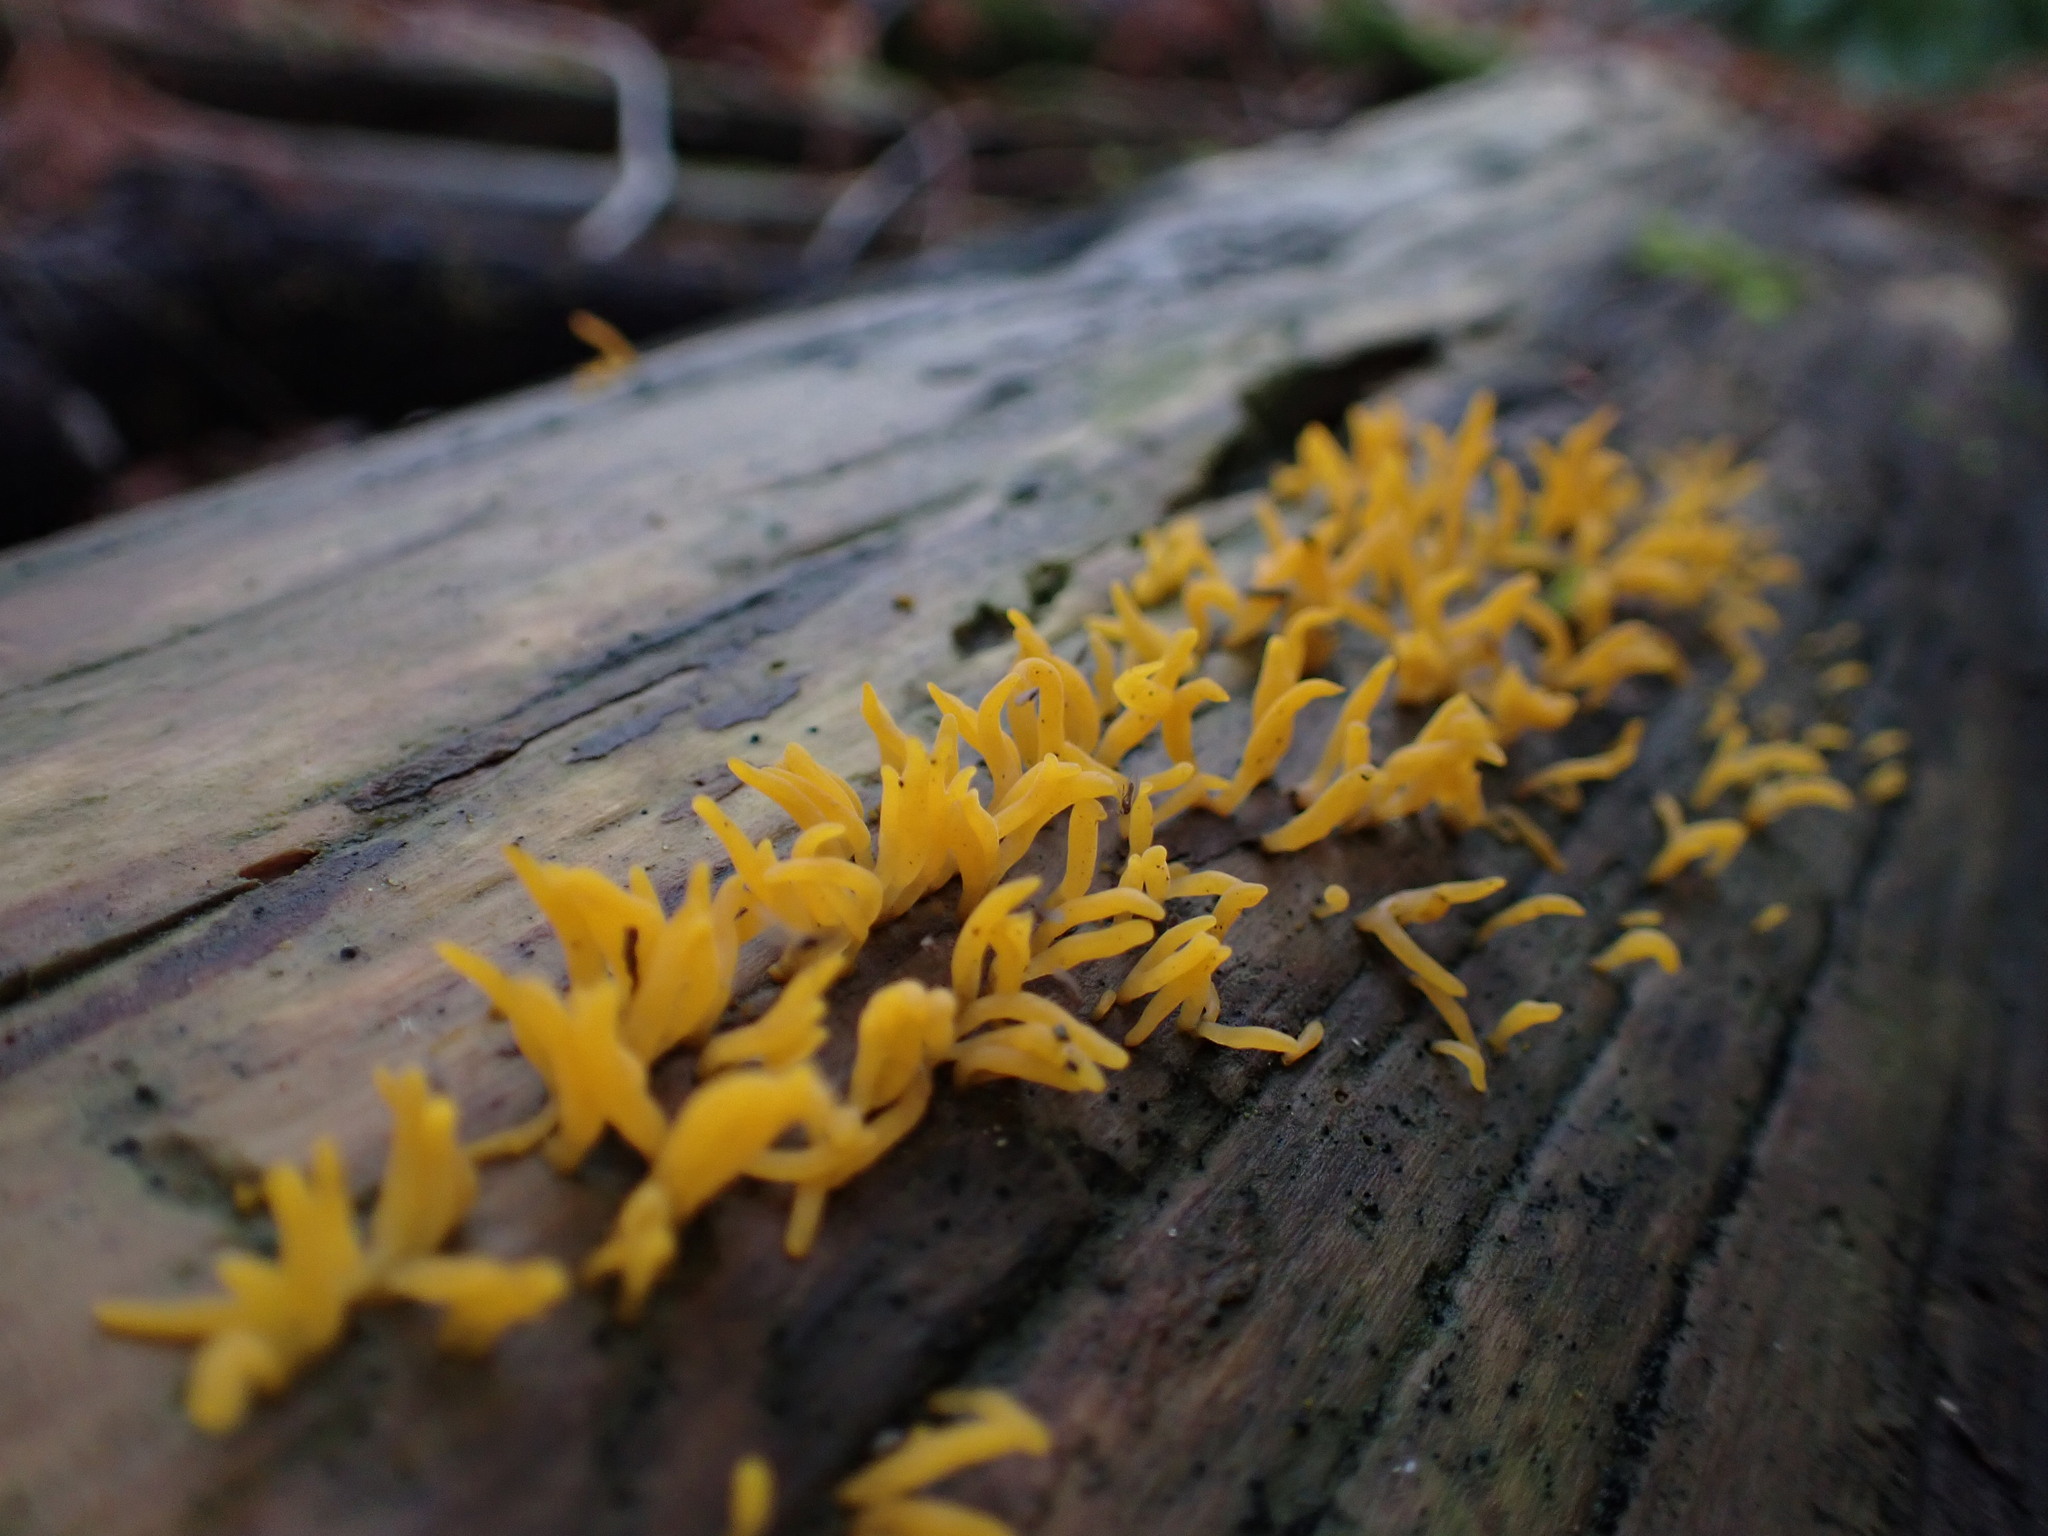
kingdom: Fungi
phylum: Basidiomycota
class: Dacrymycetes
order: Dacrymycetales
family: Dacrymycetaceae
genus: Calocera
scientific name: Calocera cornea
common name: Small stagshorn
